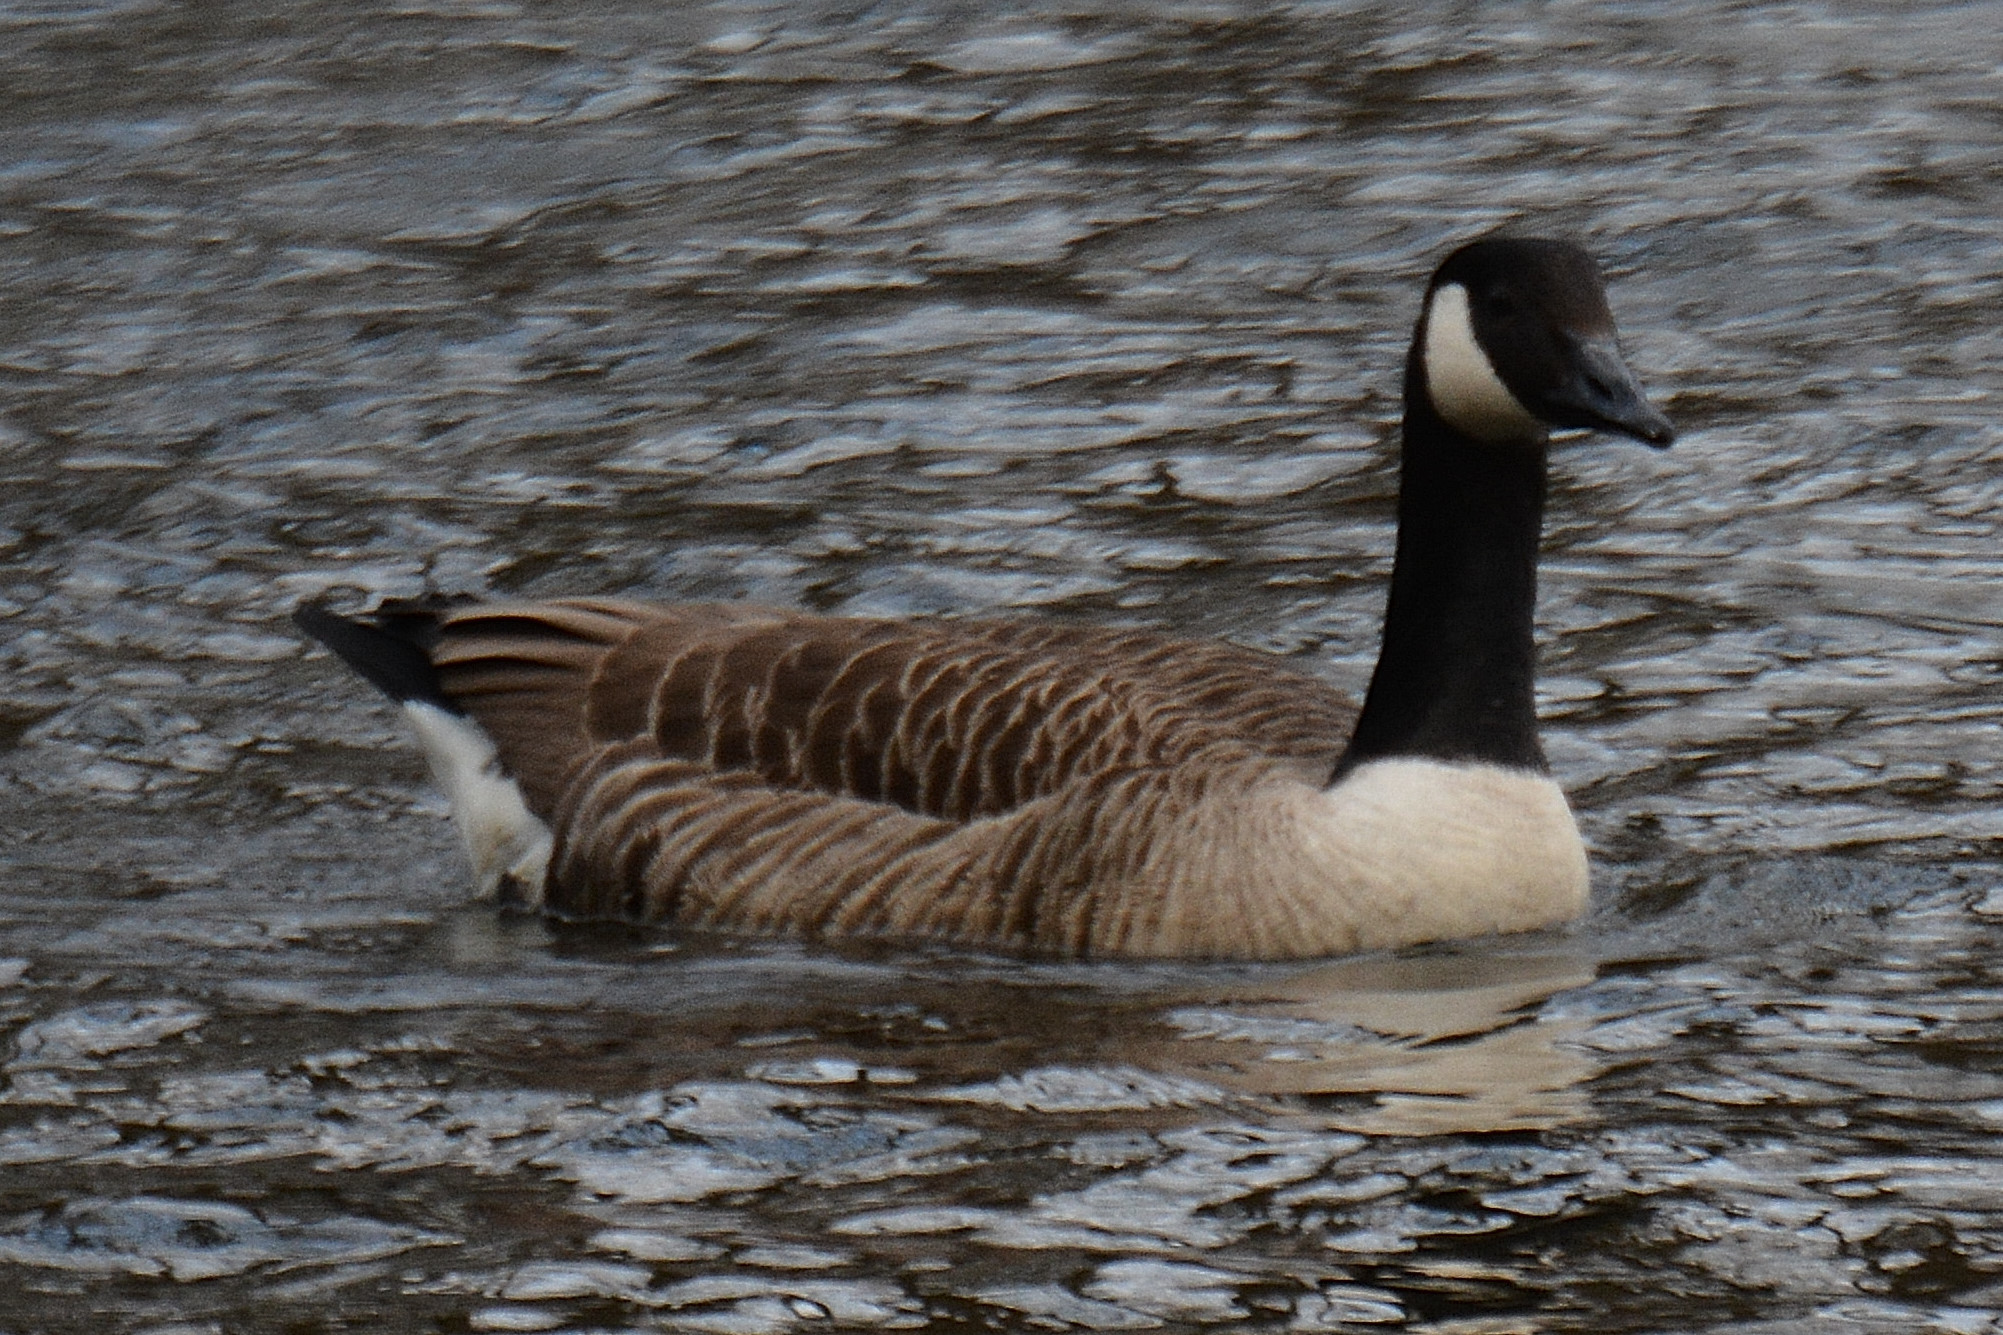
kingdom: Animalia
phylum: Chordata
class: Aves
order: Anseriformes
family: Anatidae
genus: Branta
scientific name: Branta canadensis
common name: Canada goose
